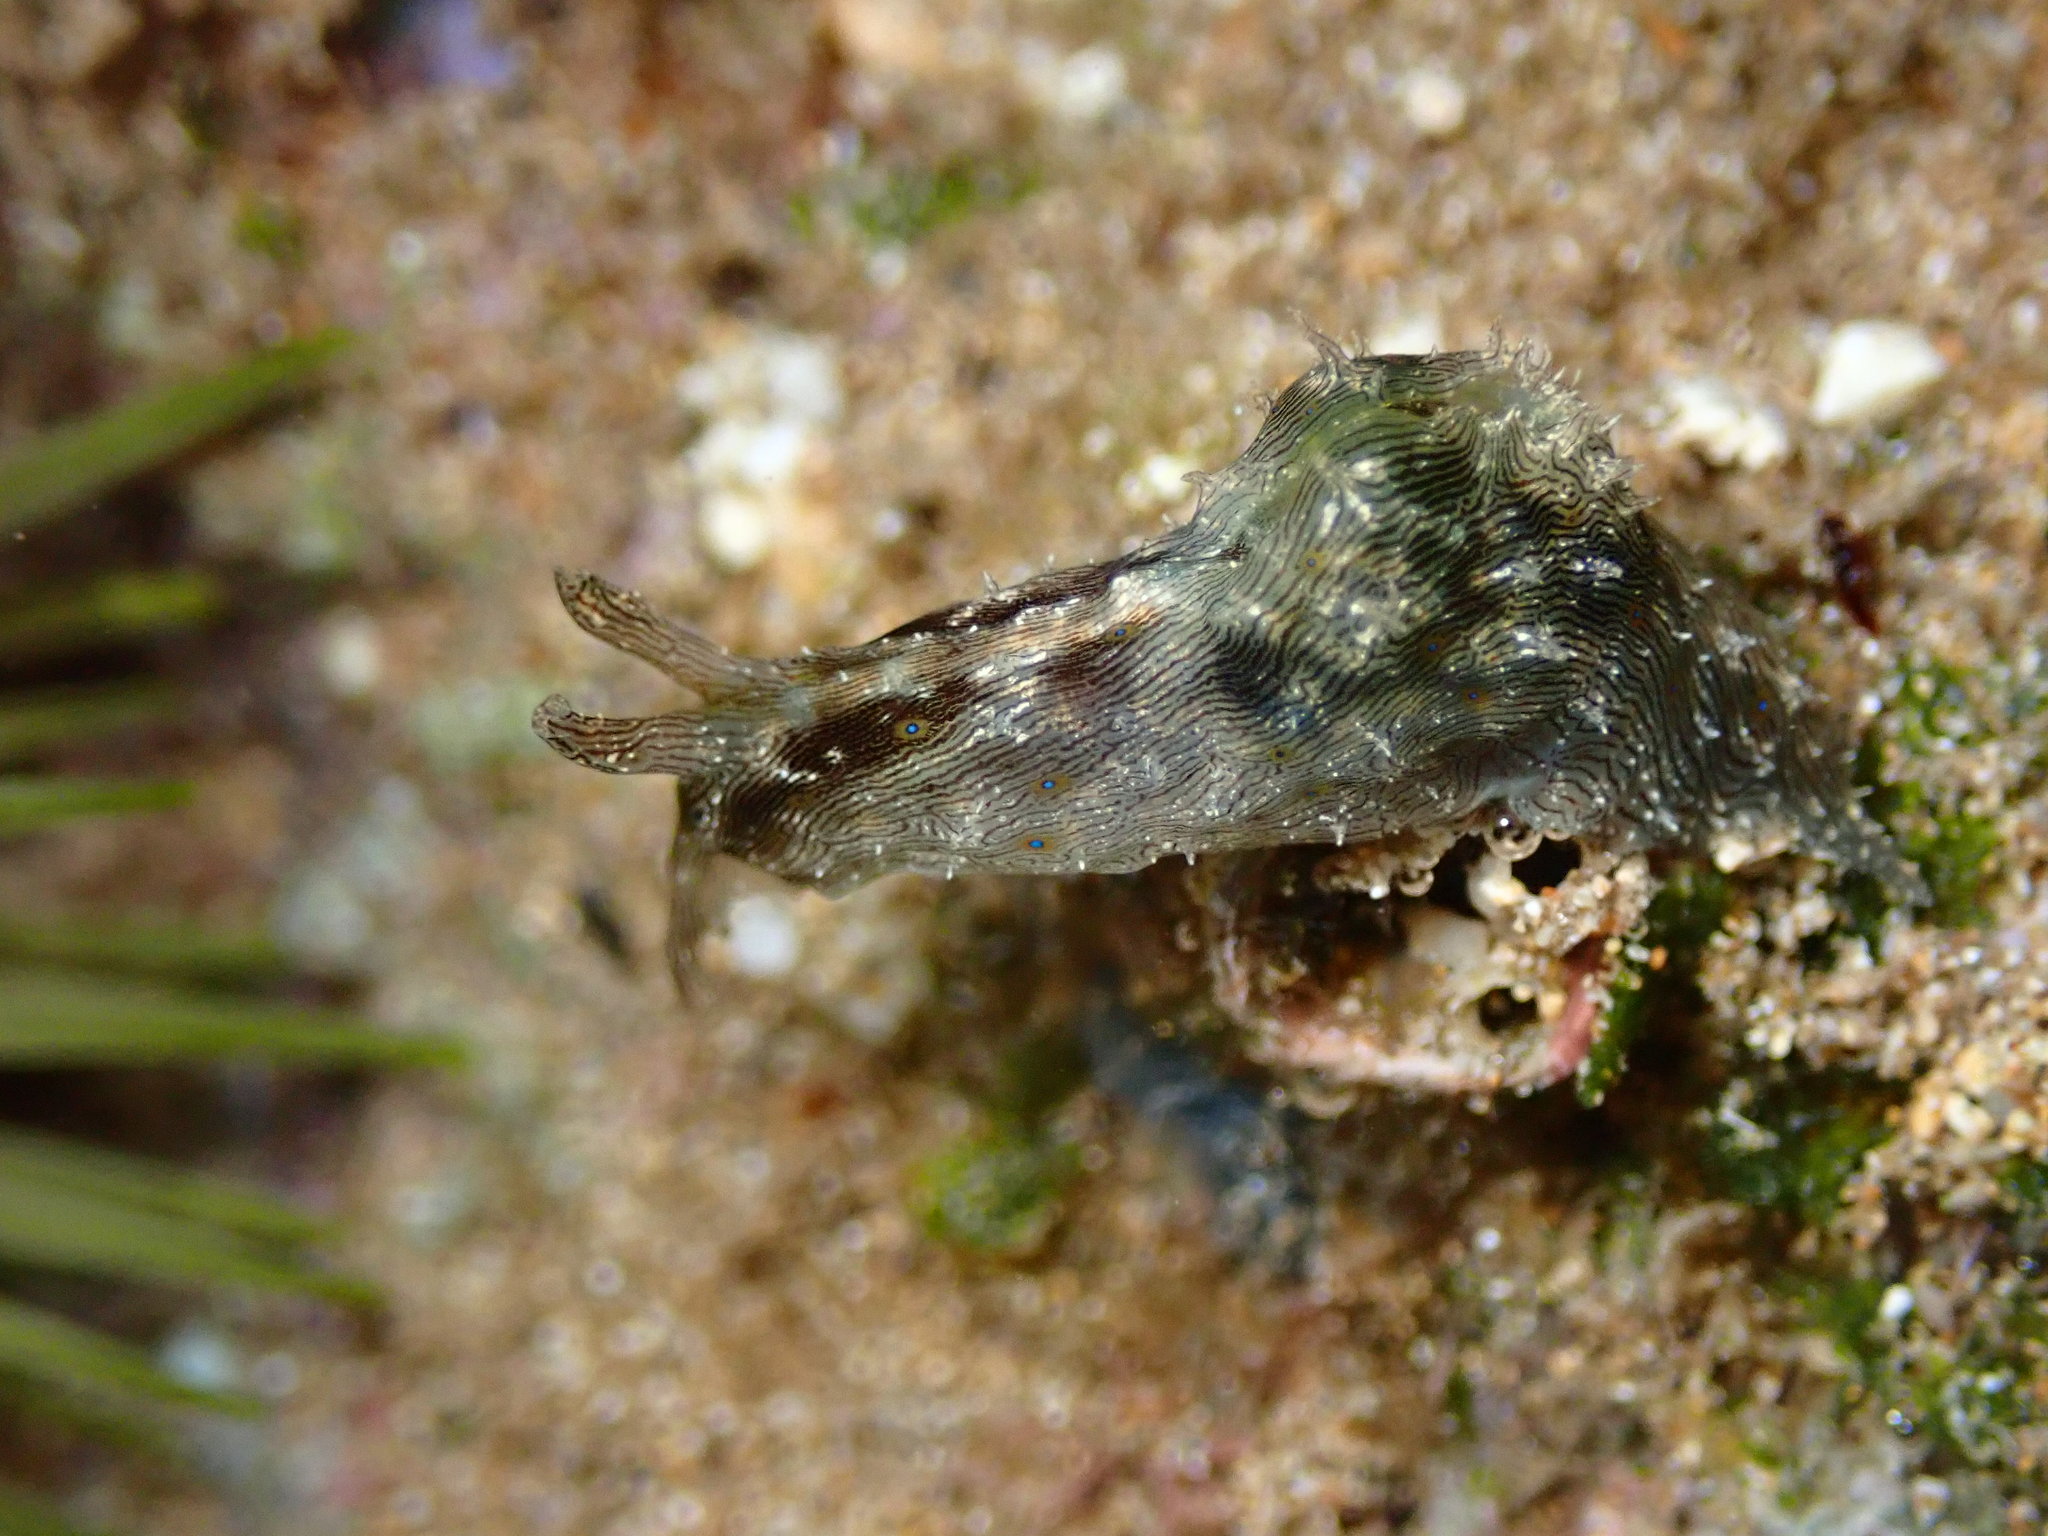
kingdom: Animalia
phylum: Mollusca
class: Gastropoda
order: Aplysiida
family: Aplysiidae
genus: Stylocheilus
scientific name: Stylocheilus striatus
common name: Striated seahare
